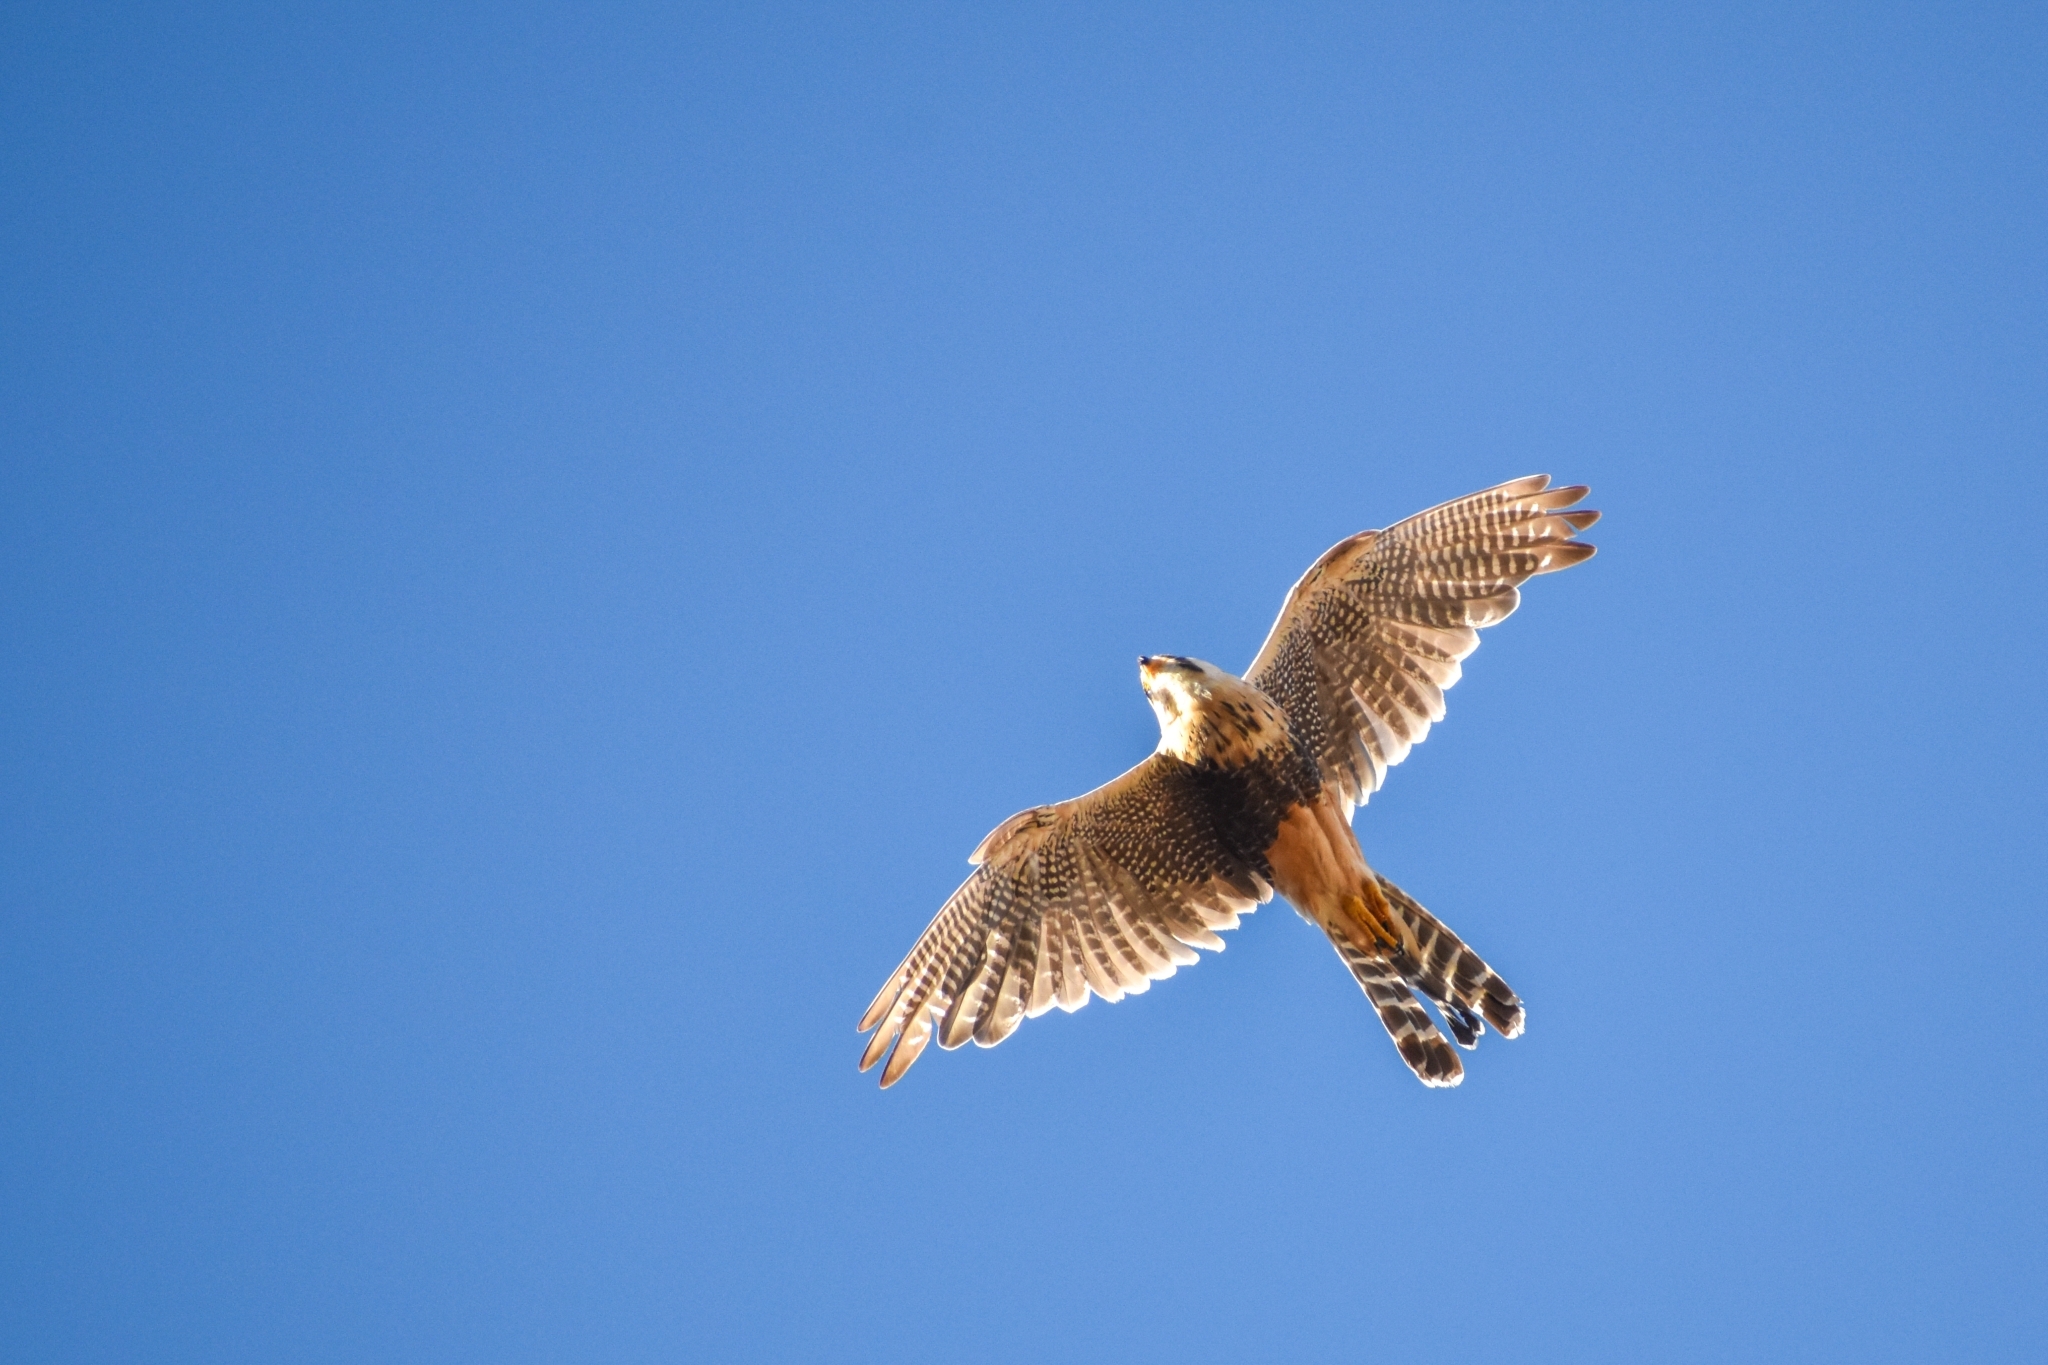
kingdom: Animalia
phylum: Chordata
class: Aves
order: Falconiformes
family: Falconidae
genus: Falco
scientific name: Falco femoralis
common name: Aplomado falcon
